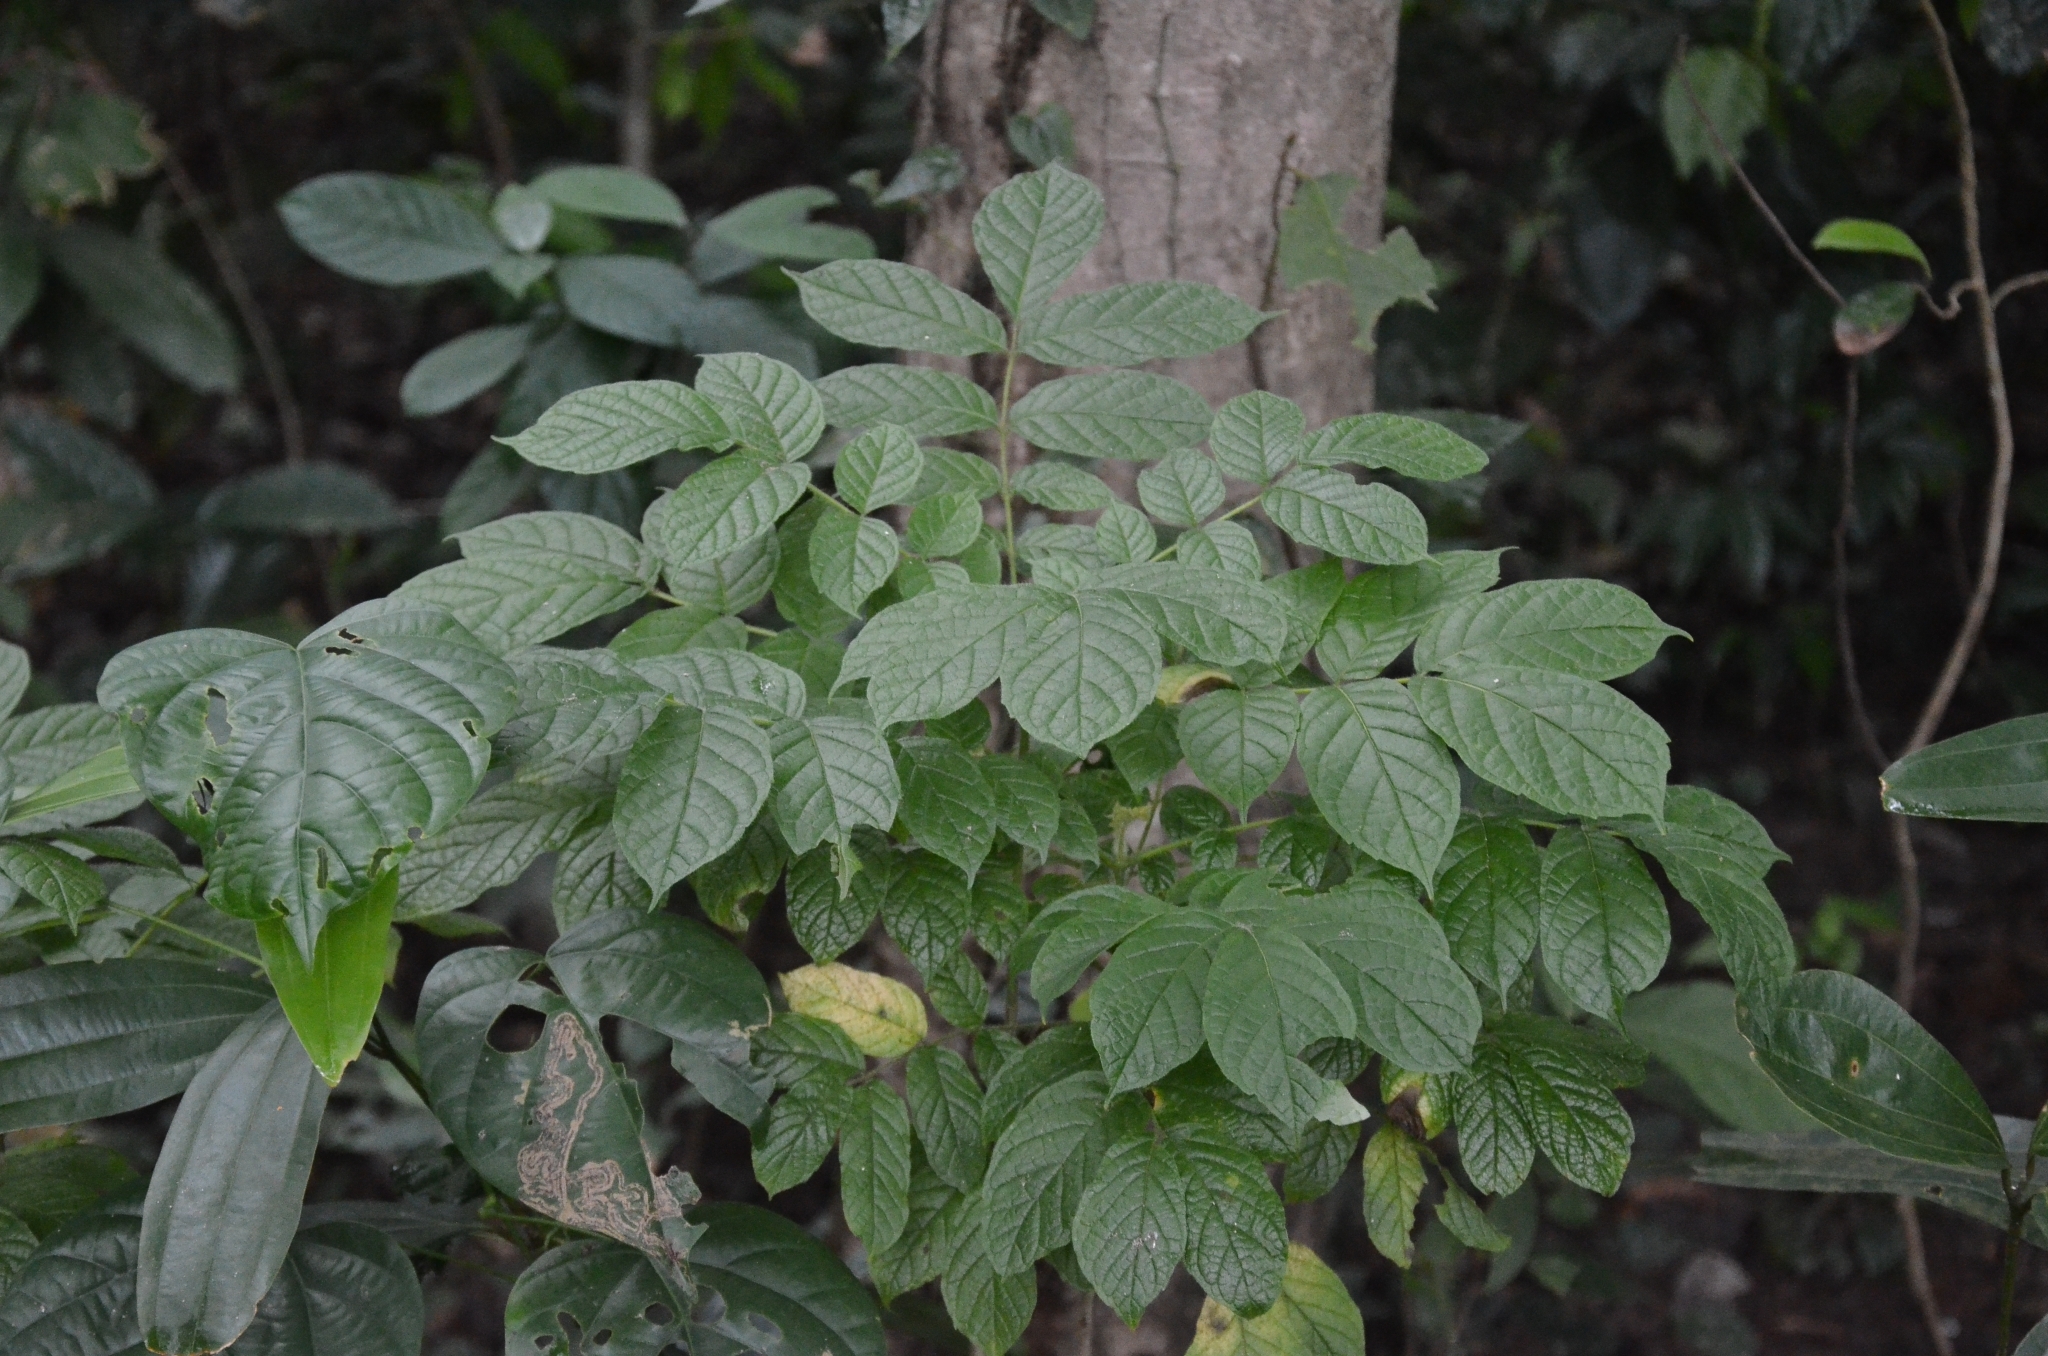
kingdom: Plantae
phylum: Tracheophyta
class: Magnoliopsida
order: Lamiales
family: Bignoniaceae
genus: Spathodea
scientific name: Spathodea campanulata
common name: African tuliptree
